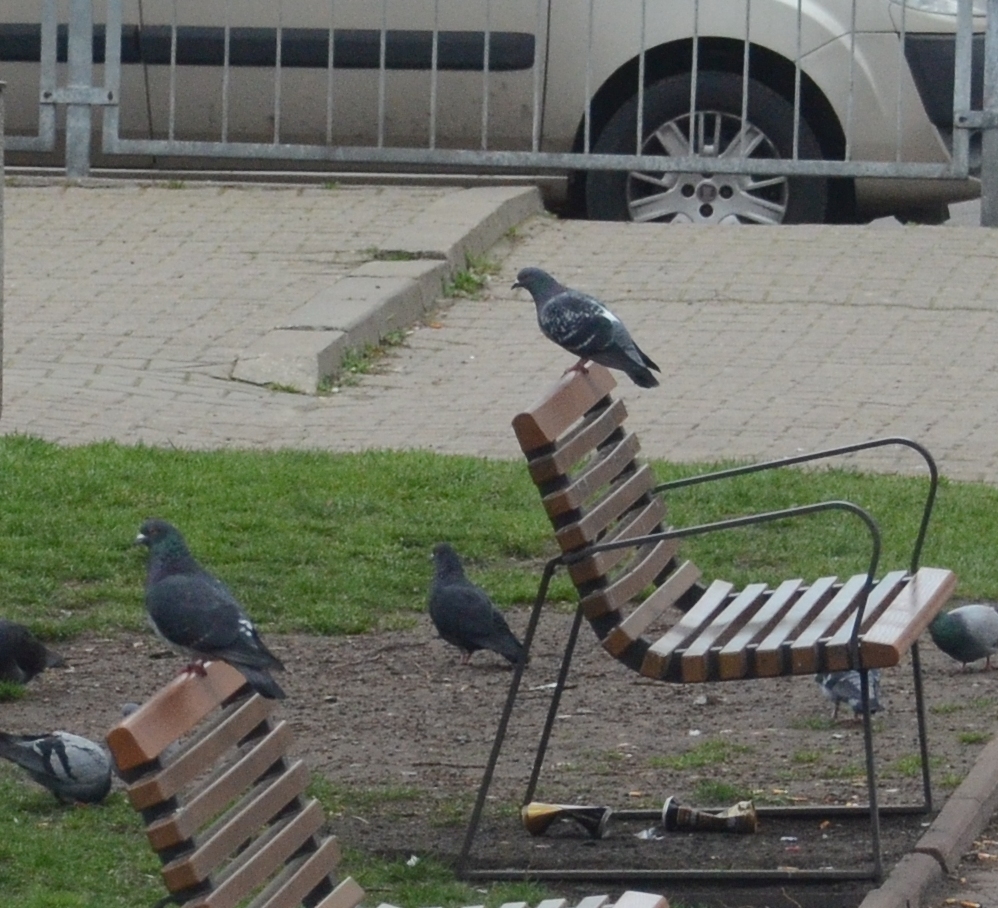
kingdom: Animalia
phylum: Chordata
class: Aves
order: Columbiformes
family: Columbidae
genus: Columba
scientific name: Columba livia
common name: Rock pigeon
